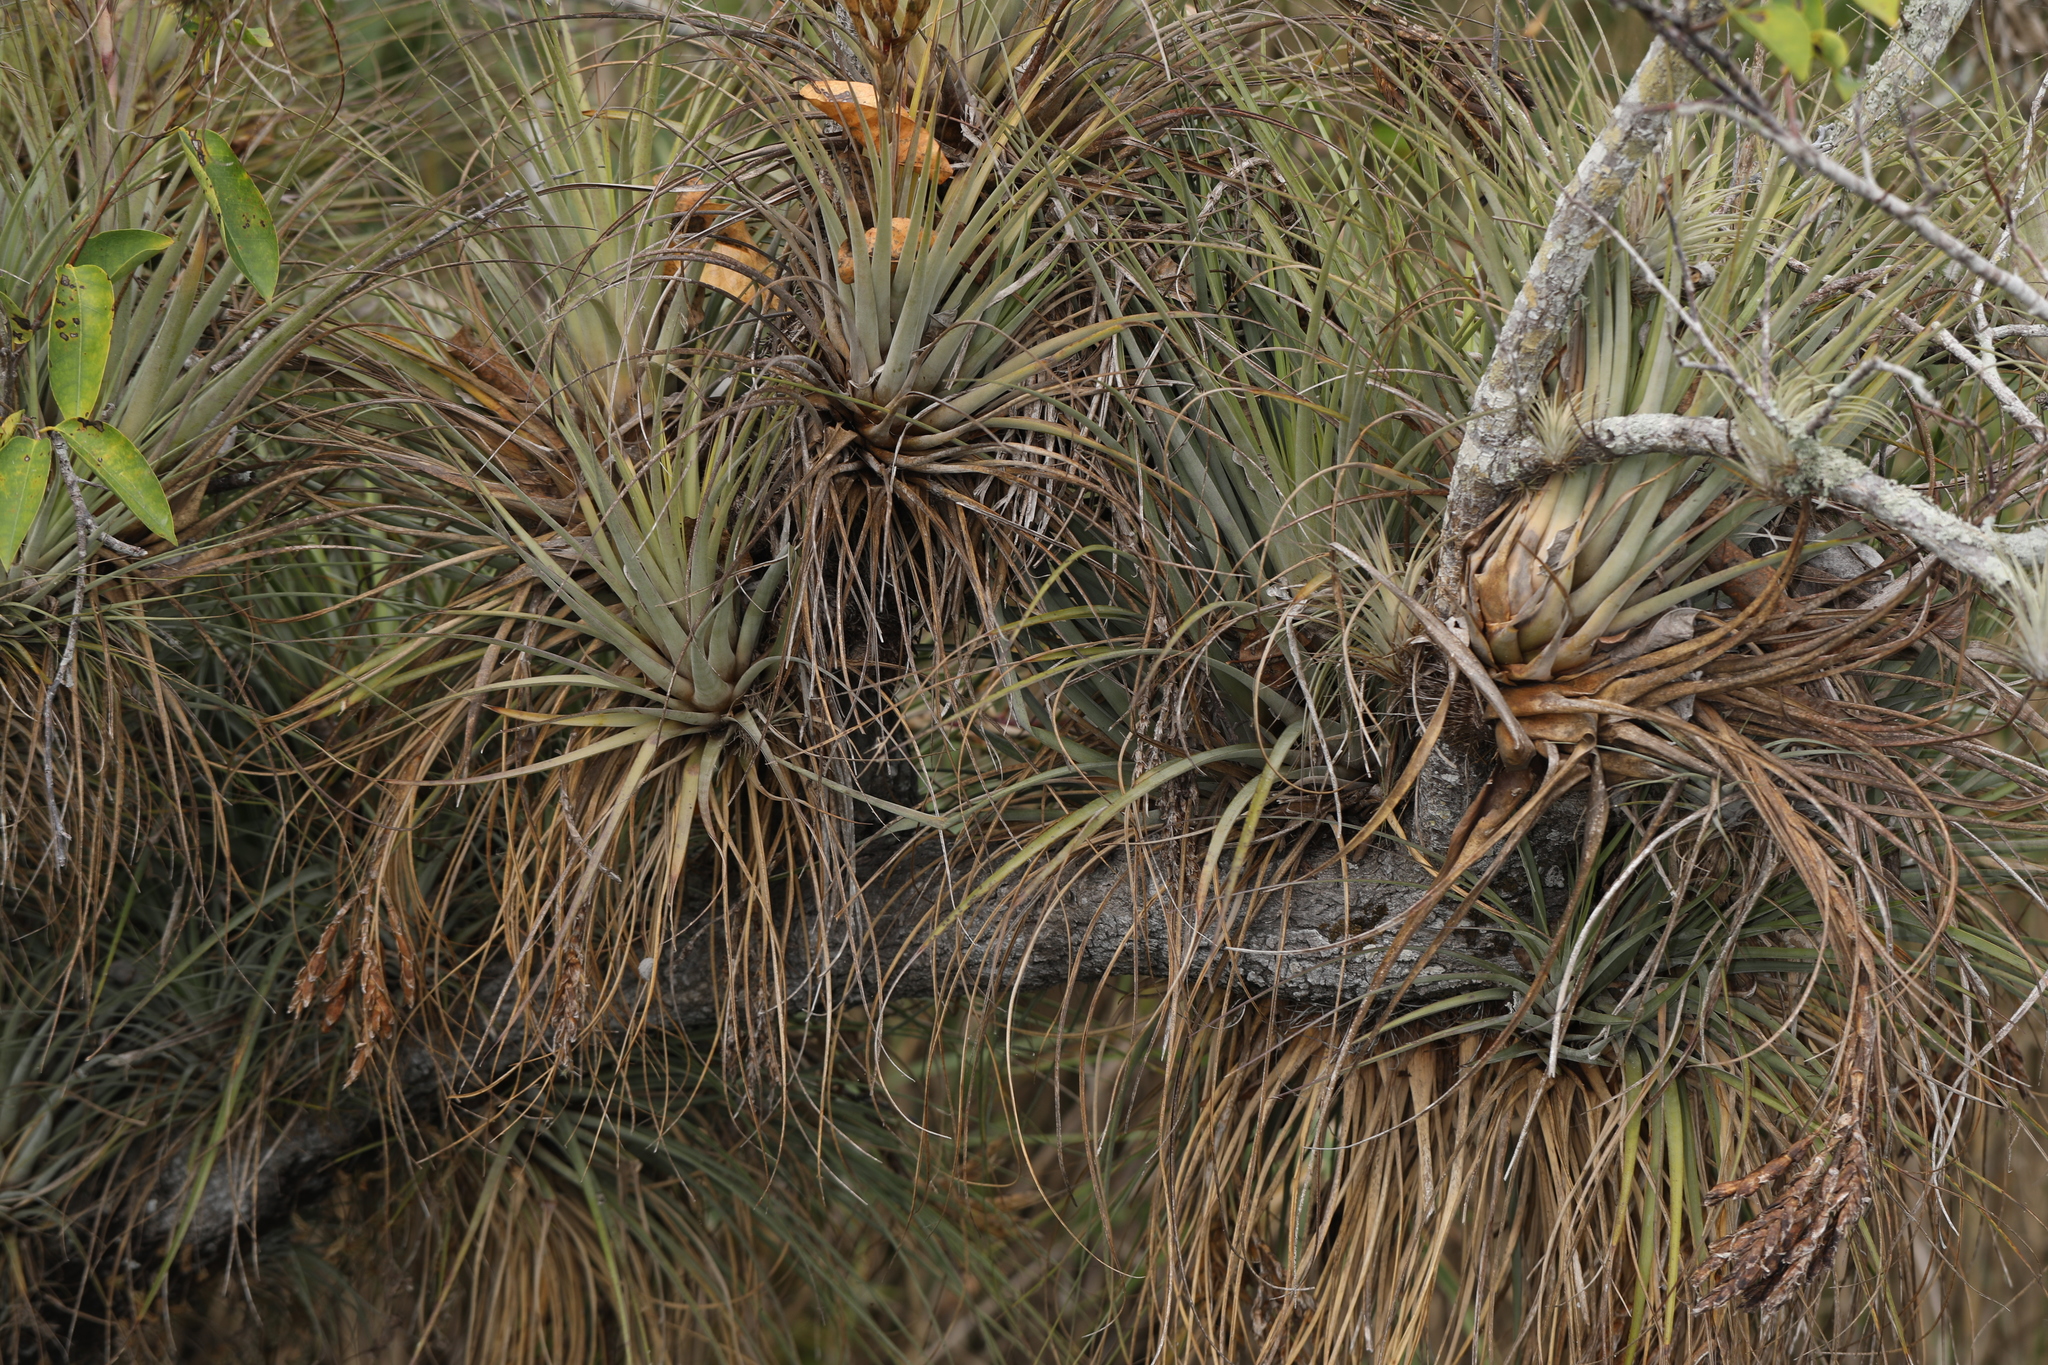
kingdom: Plantae
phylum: Tracheophyta
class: Liliopsida
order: Poales
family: Bromeliaceae
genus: Tillandsia
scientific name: Tillandsia fasciculata
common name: Giant airplant
